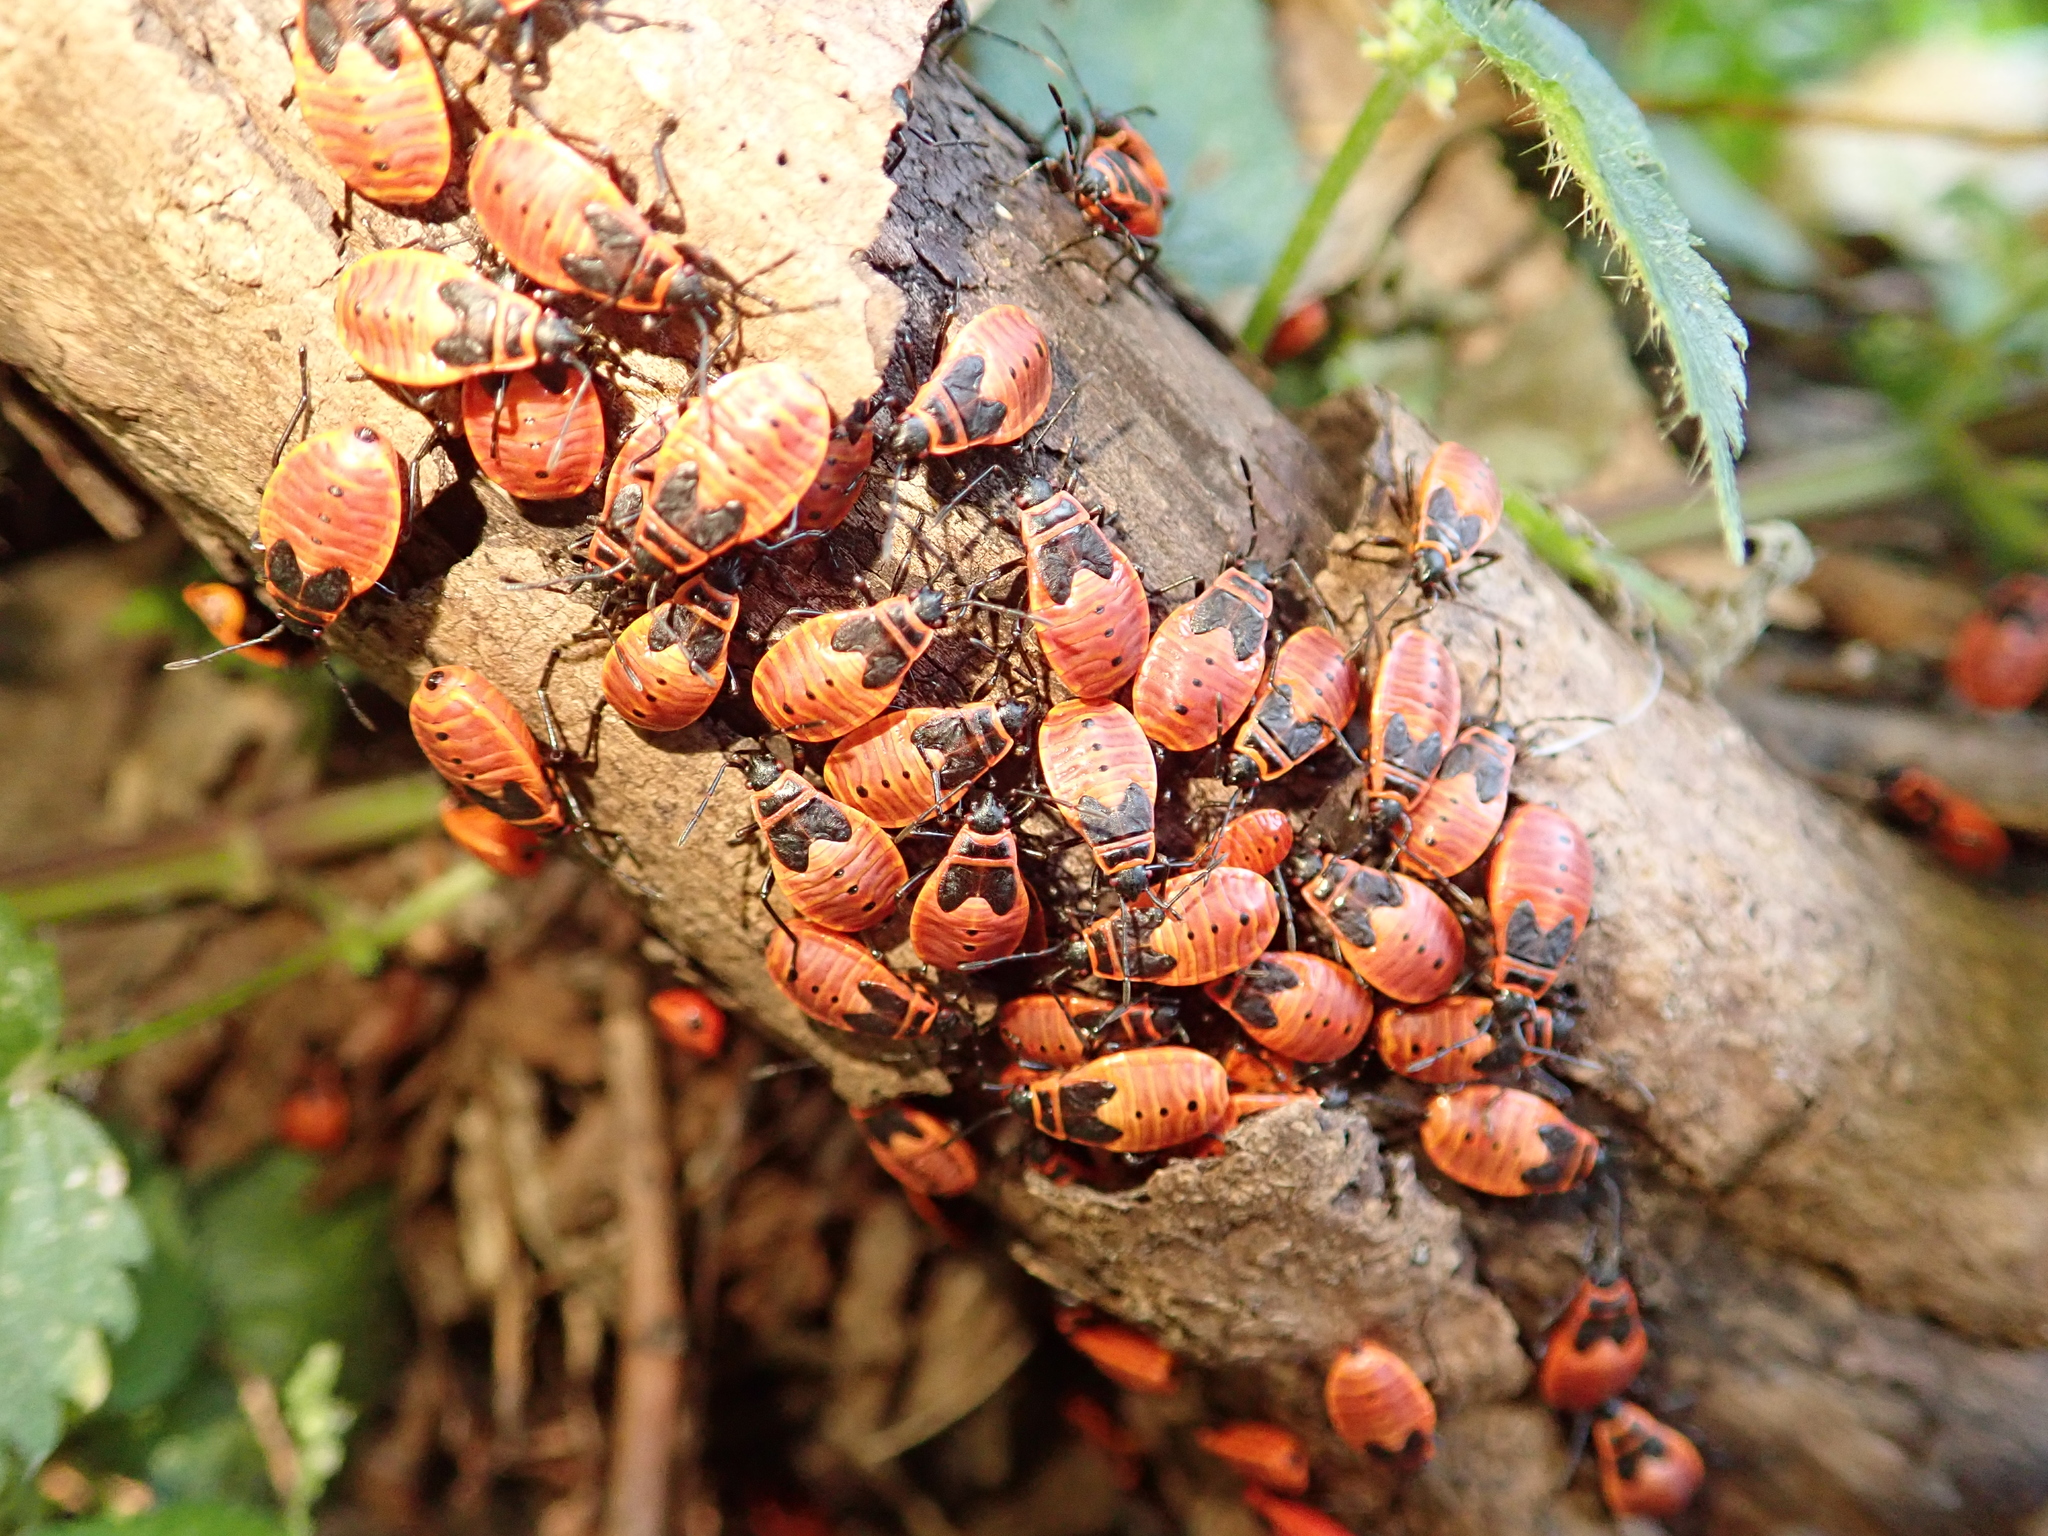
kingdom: Animalia
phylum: Arthropoda
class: Insecta
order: Hemiptera
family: Pyrrhocoridae
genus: Pyrrhocoris
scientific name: Pyrrhocoris apterus
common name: Firebug
